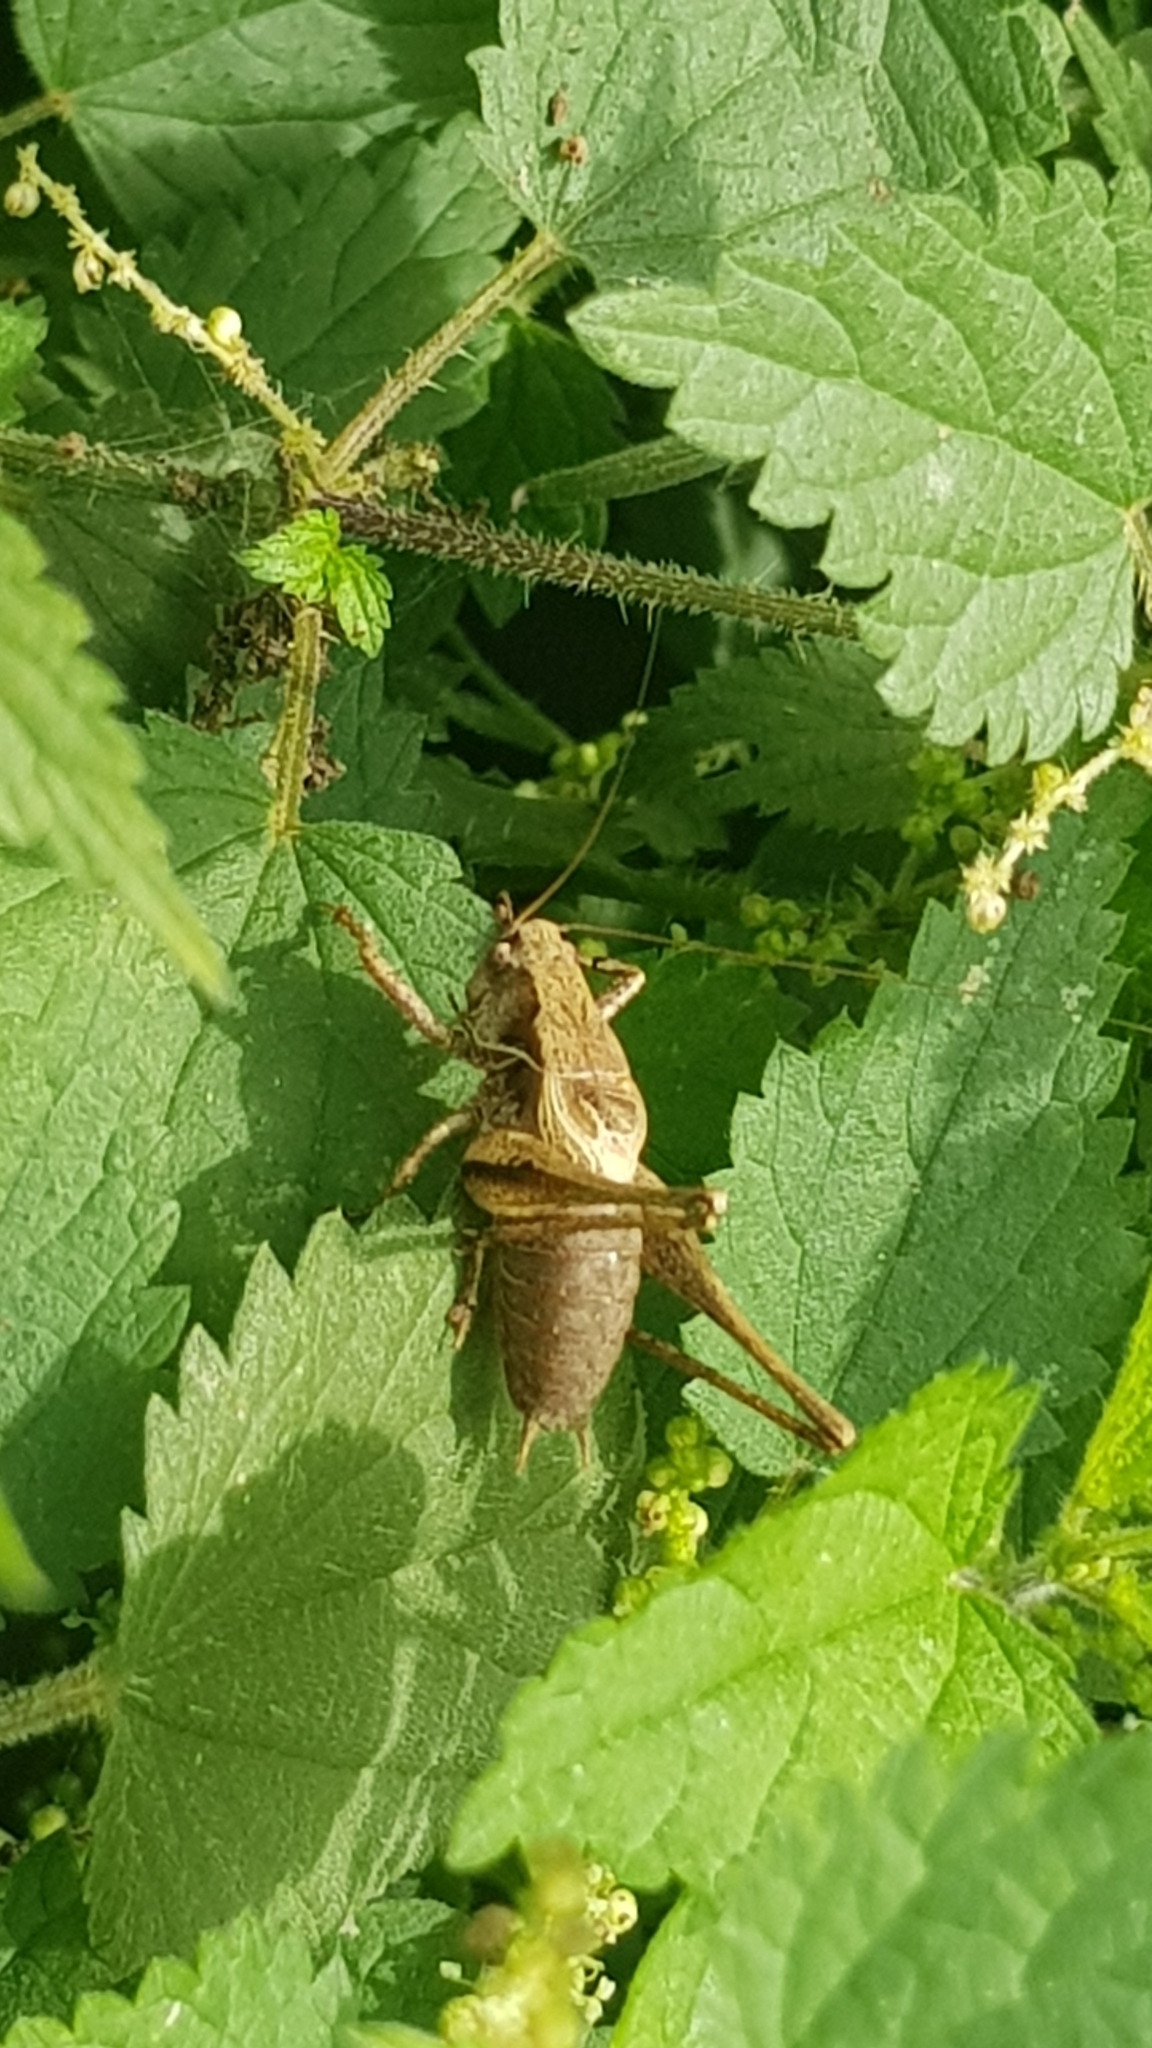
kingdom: Animalia
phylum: Arthropoda
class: Insecta
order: Orthoptera
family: Tettigoniidae
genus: Pholidoptera
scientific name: Pholidoptera griseoaptera
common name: Dark bush-cricket
